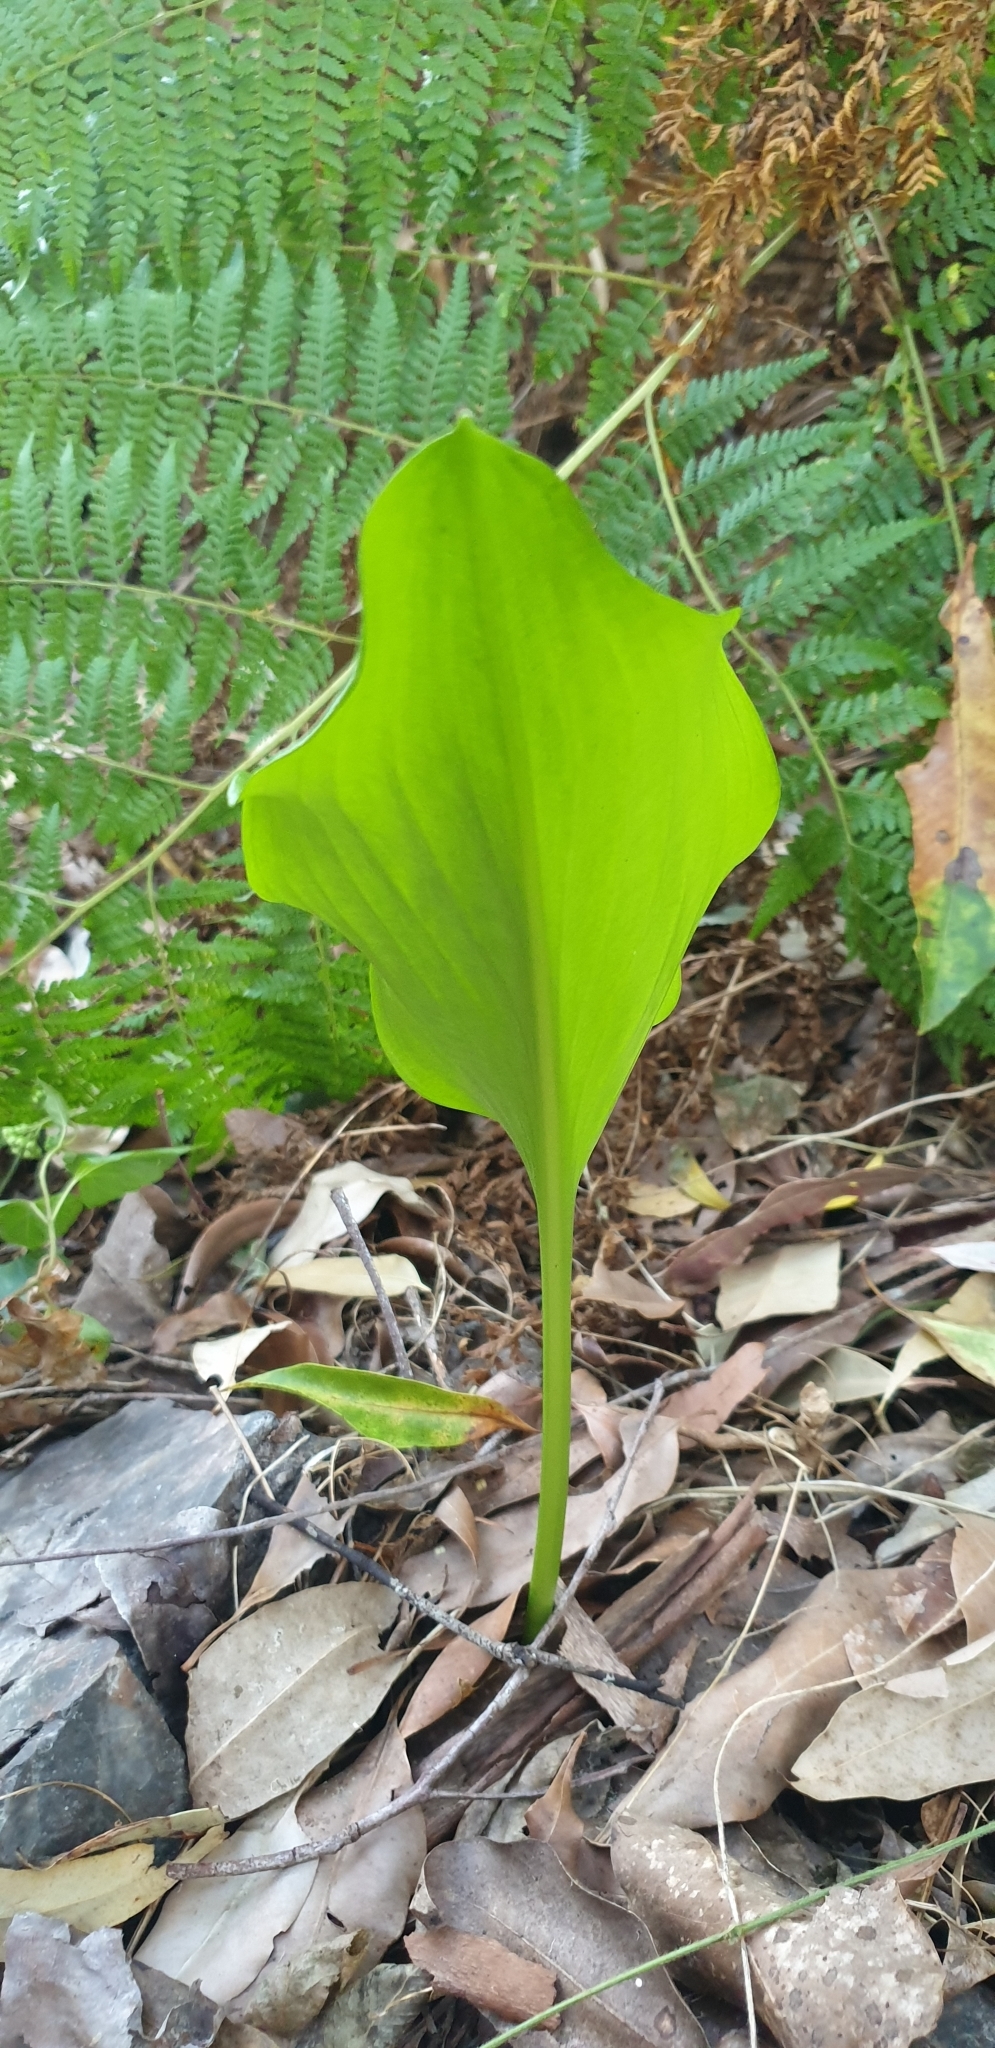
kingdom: Plantae
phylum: Tracheophyta
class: Liliopsida
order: Asparagales
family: Amaryllidaceae
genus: Proiphys
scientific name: Proiphys cunninghamii
